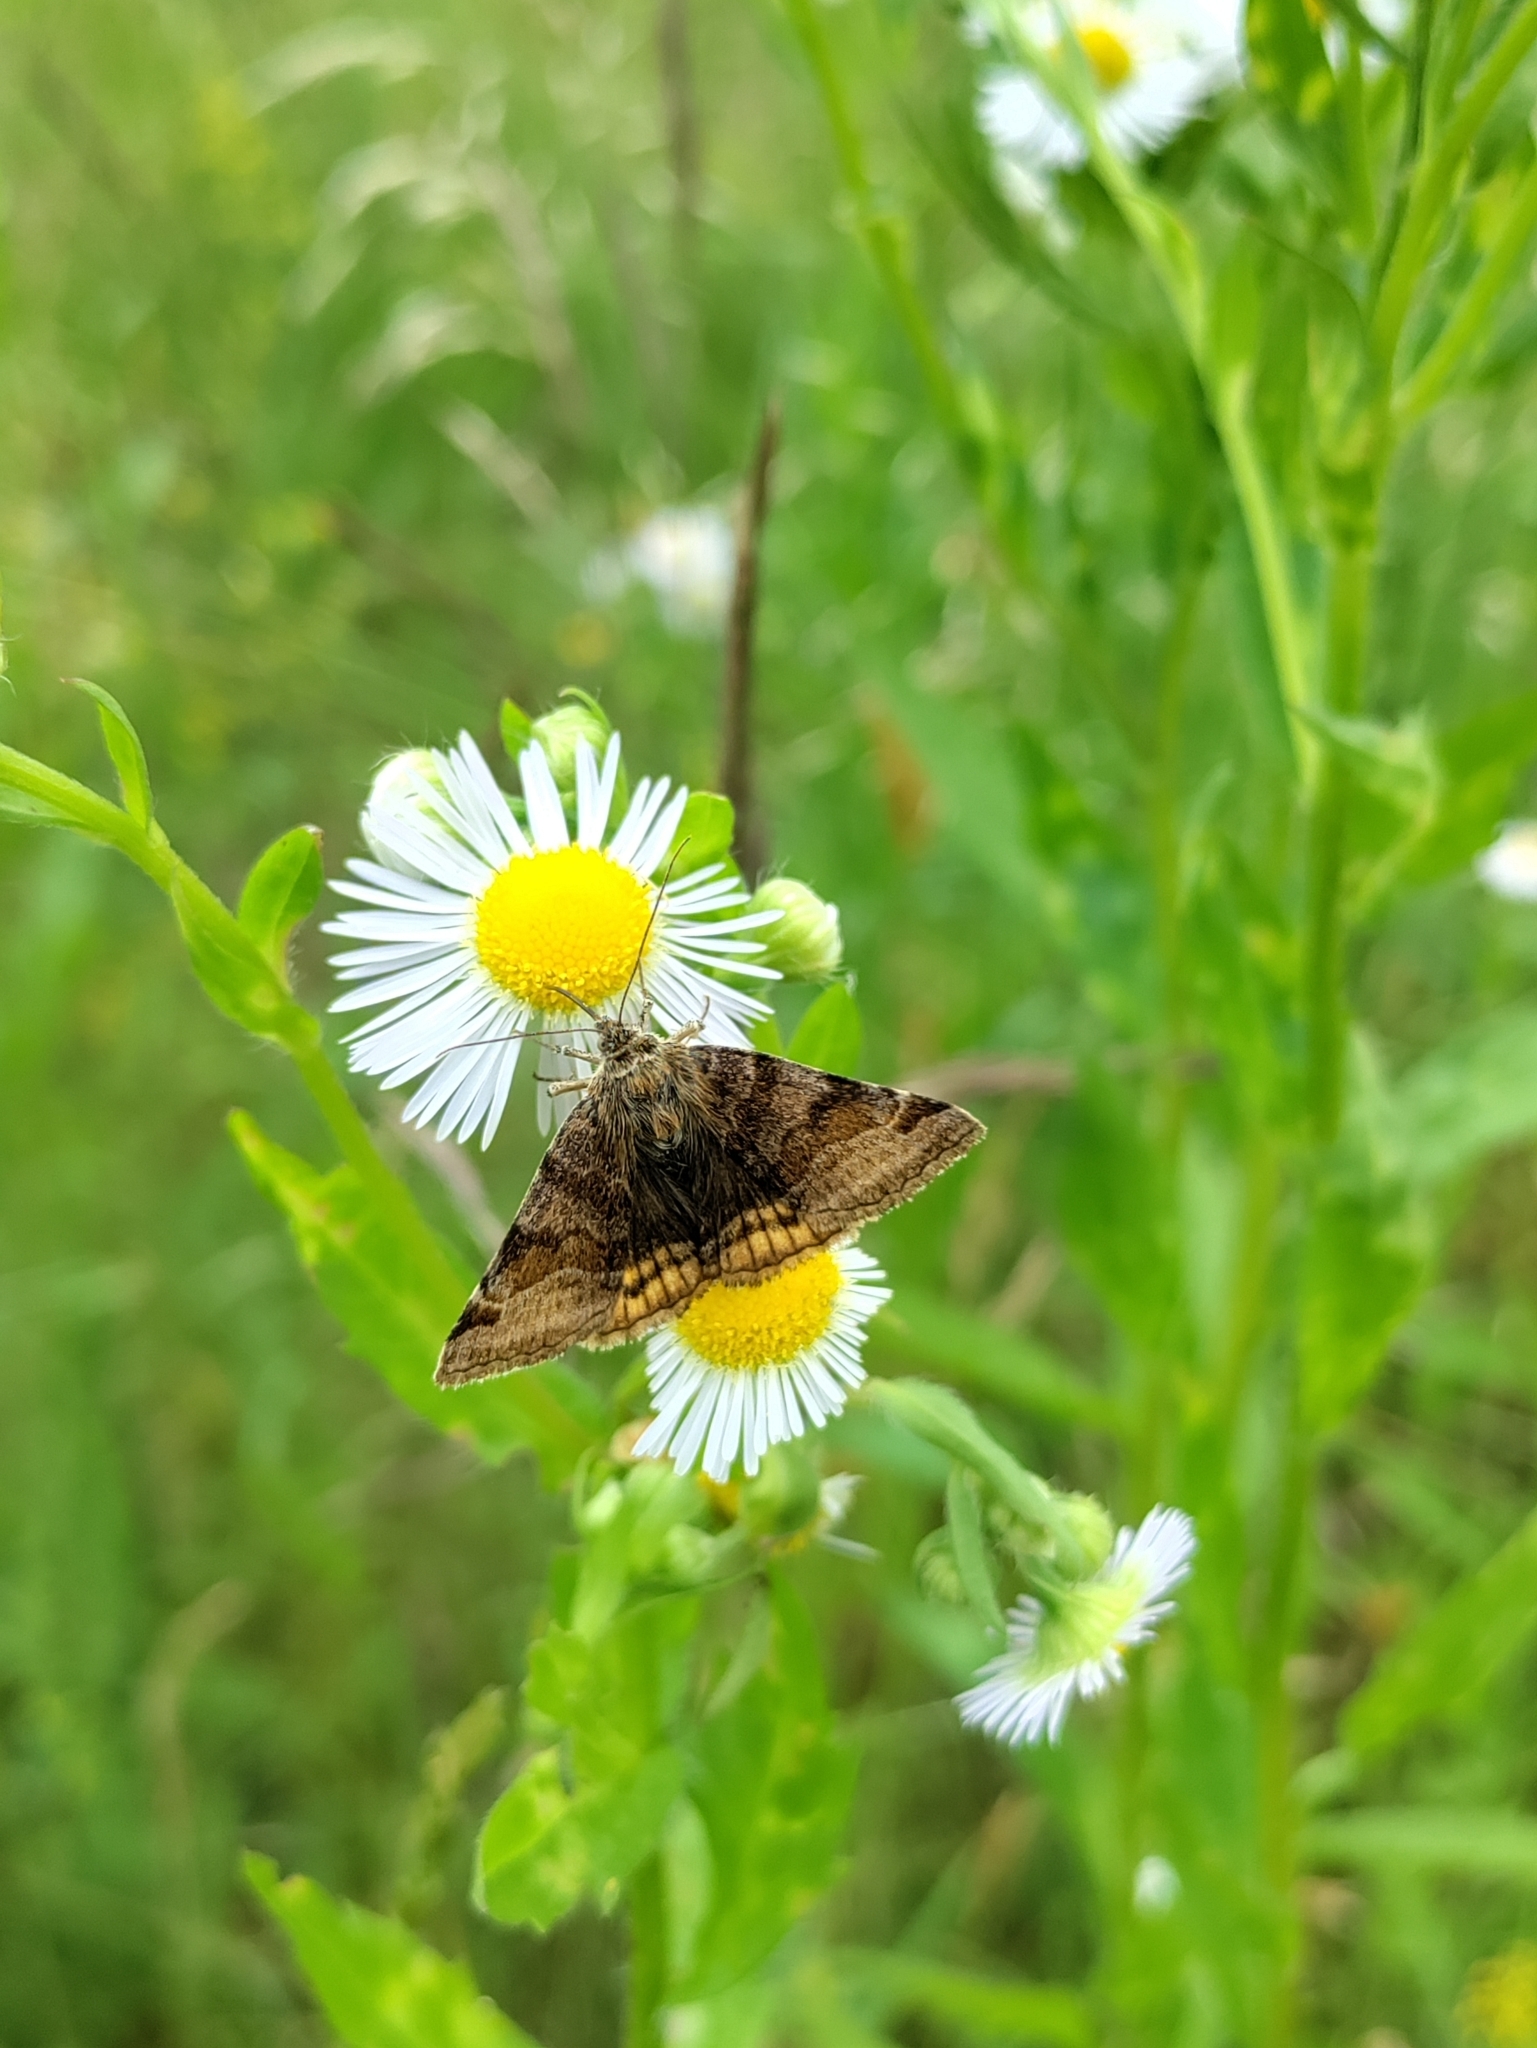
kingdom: Animalia
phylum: Arthropoda
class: Insecta
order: Lepidoptera
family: Erebidae
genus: Euclidia
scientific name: Euclidia glyphica
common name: Burnet companion
